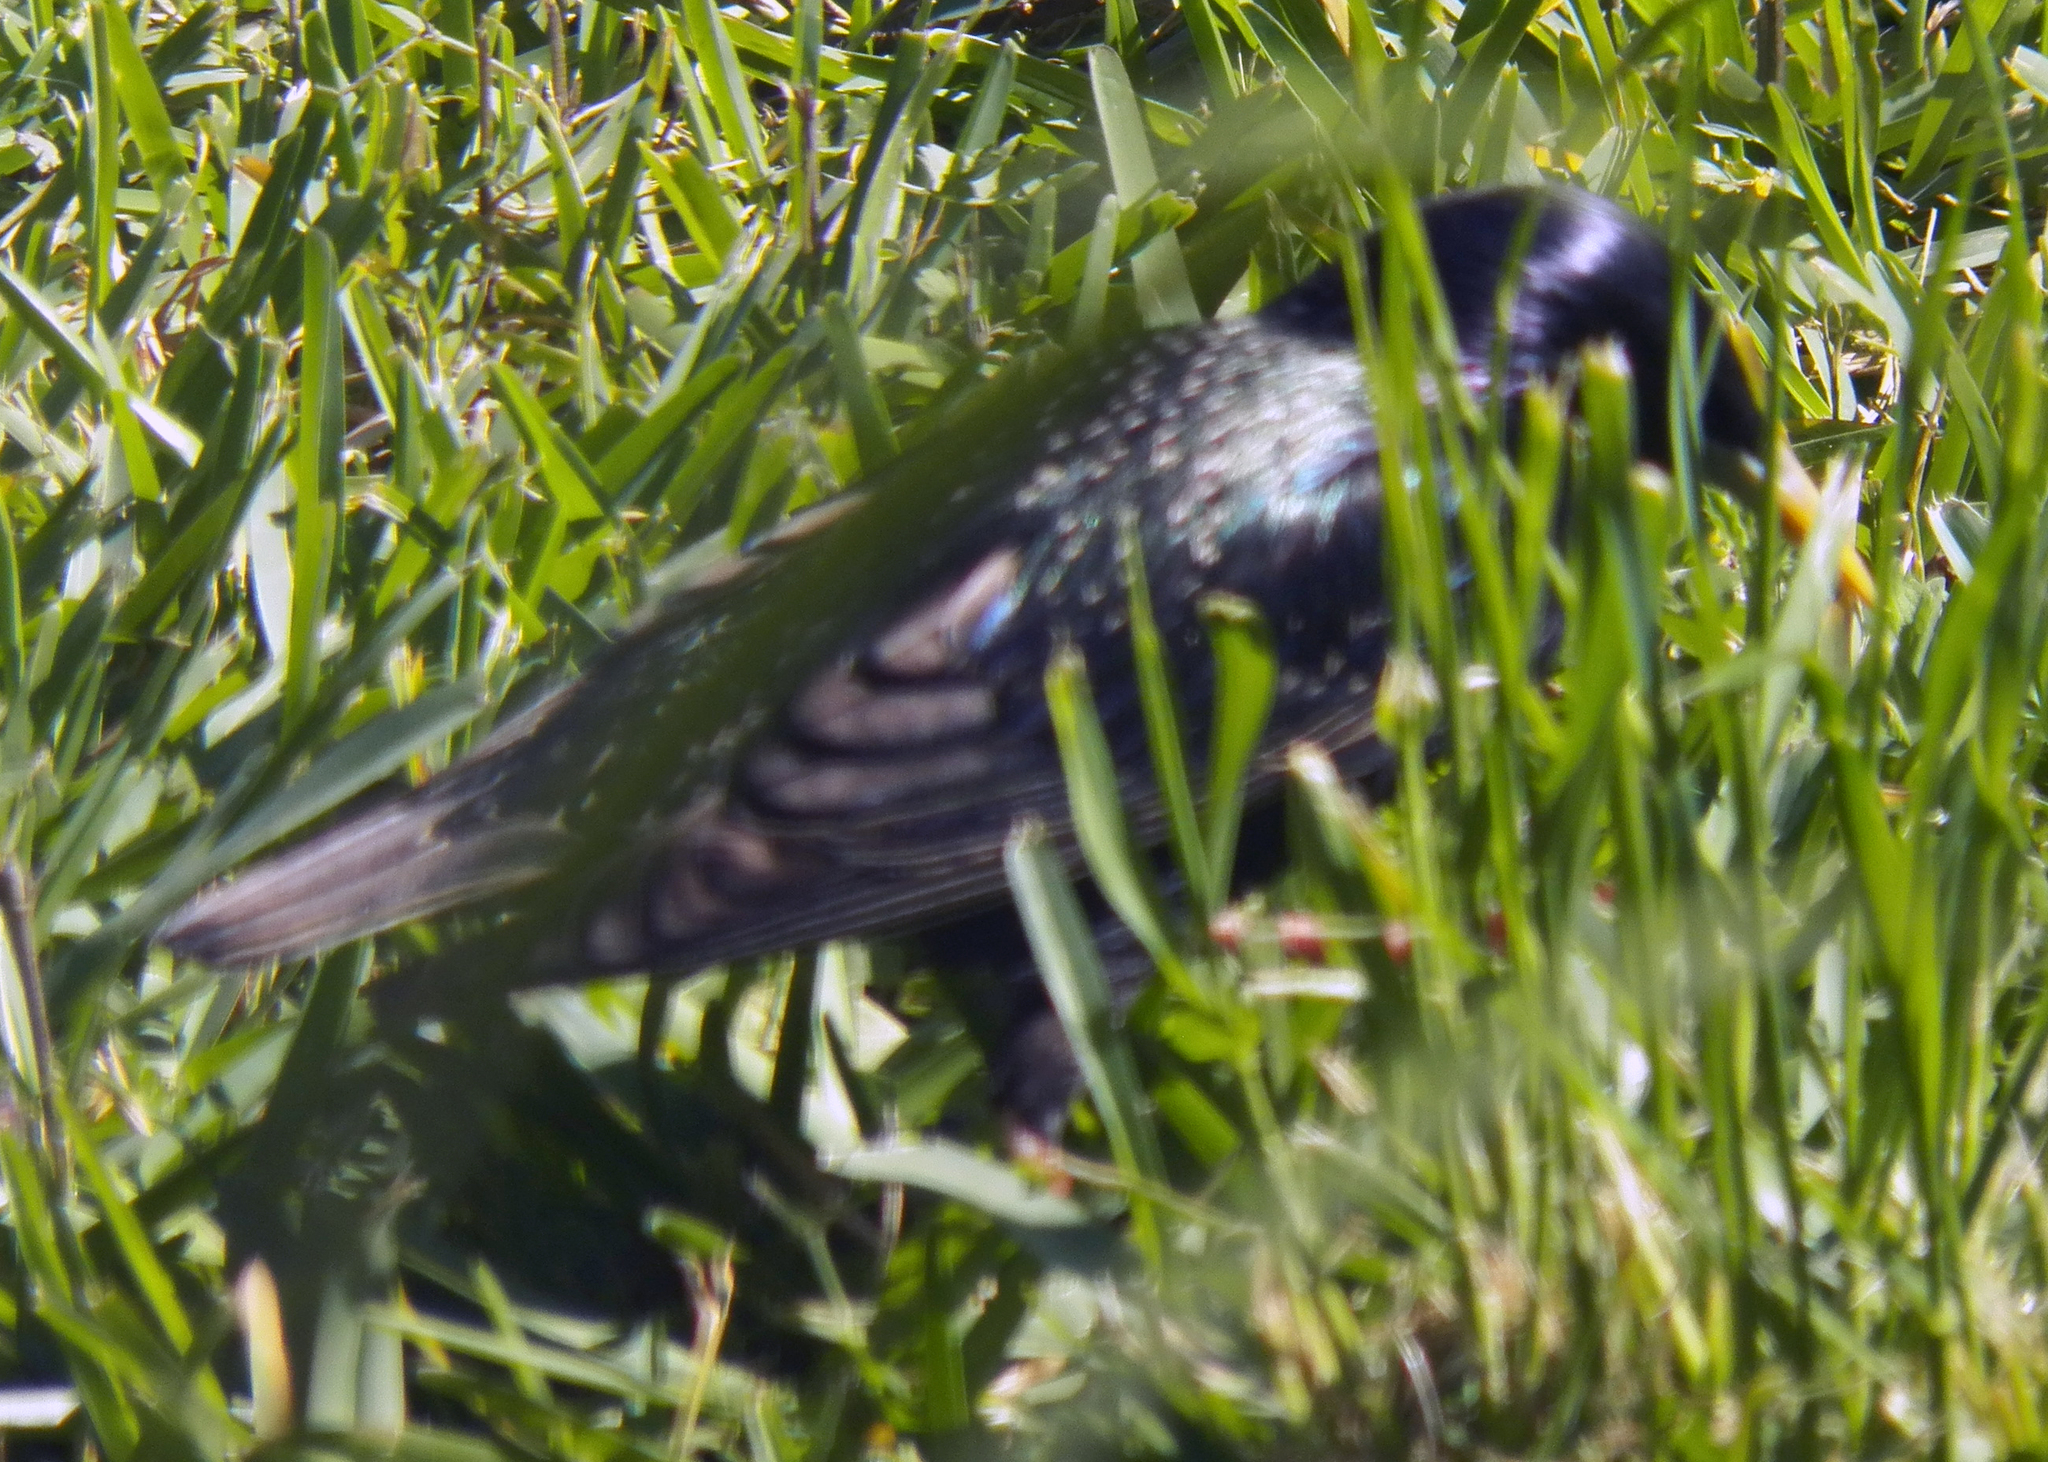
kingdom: Animalia
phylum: Chordata
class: Aves
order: Passeriformes
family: Sturnidae
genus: Sturnus
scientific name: Sturnus vulgaris
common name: Common starling
